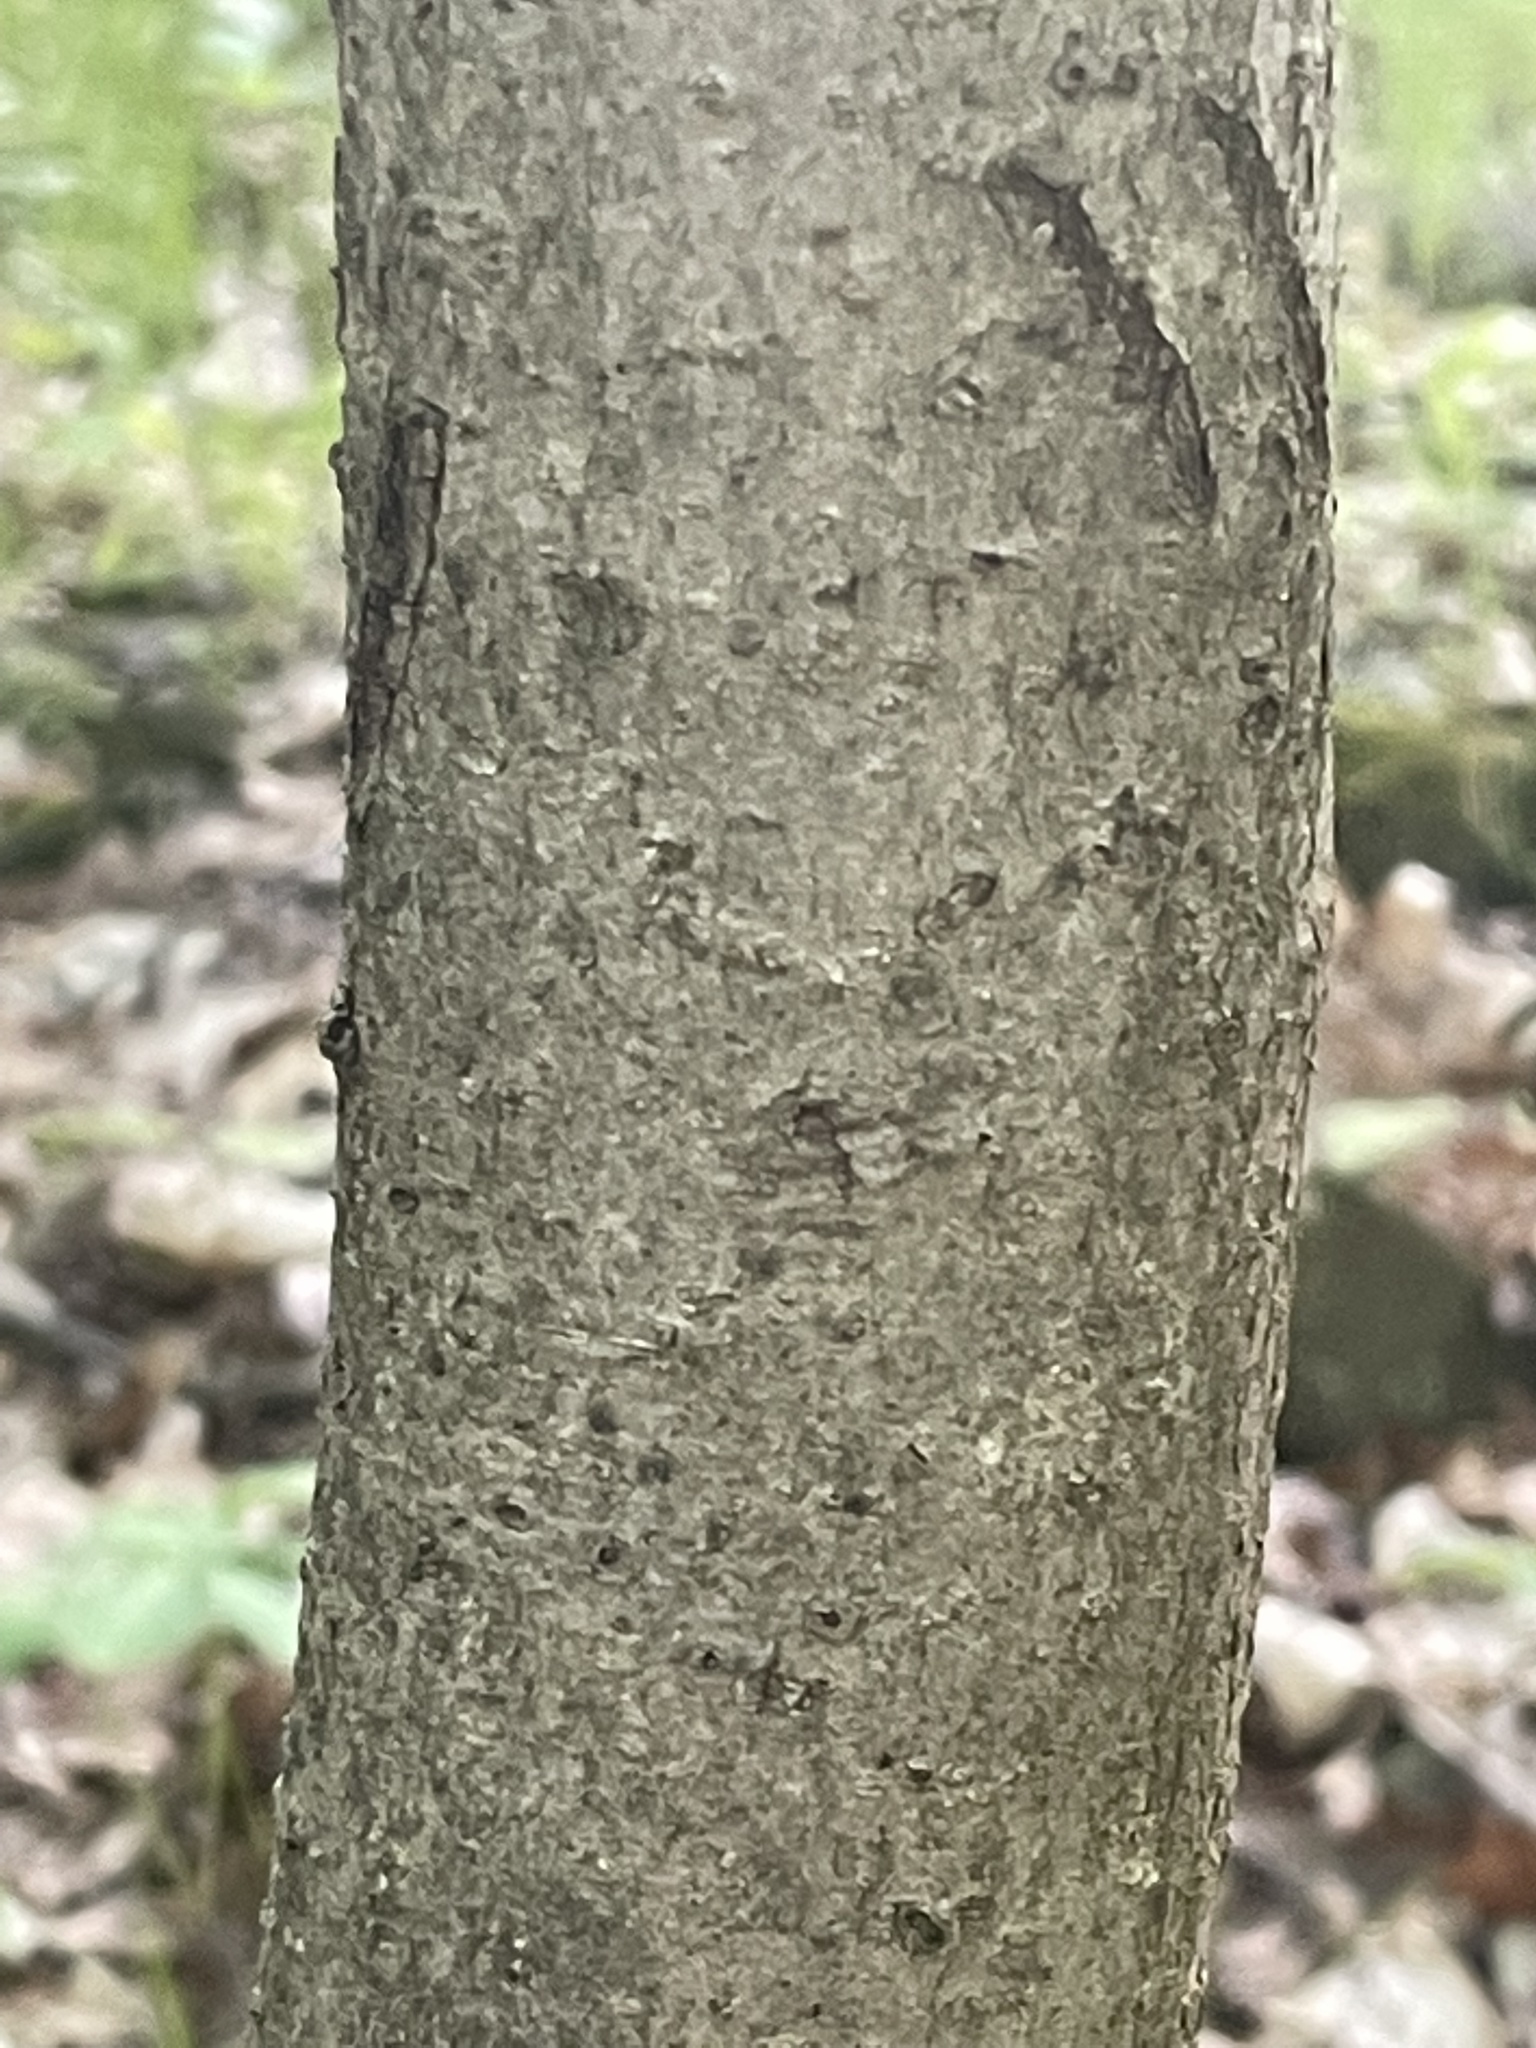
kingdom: Plantae
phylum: Tracheophyta
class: Magnoliopsida
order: Saxifragales
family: Hamamelidaceae
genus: Hamamelis
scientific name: Hamamelis virginiana
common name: Witch-hazel
